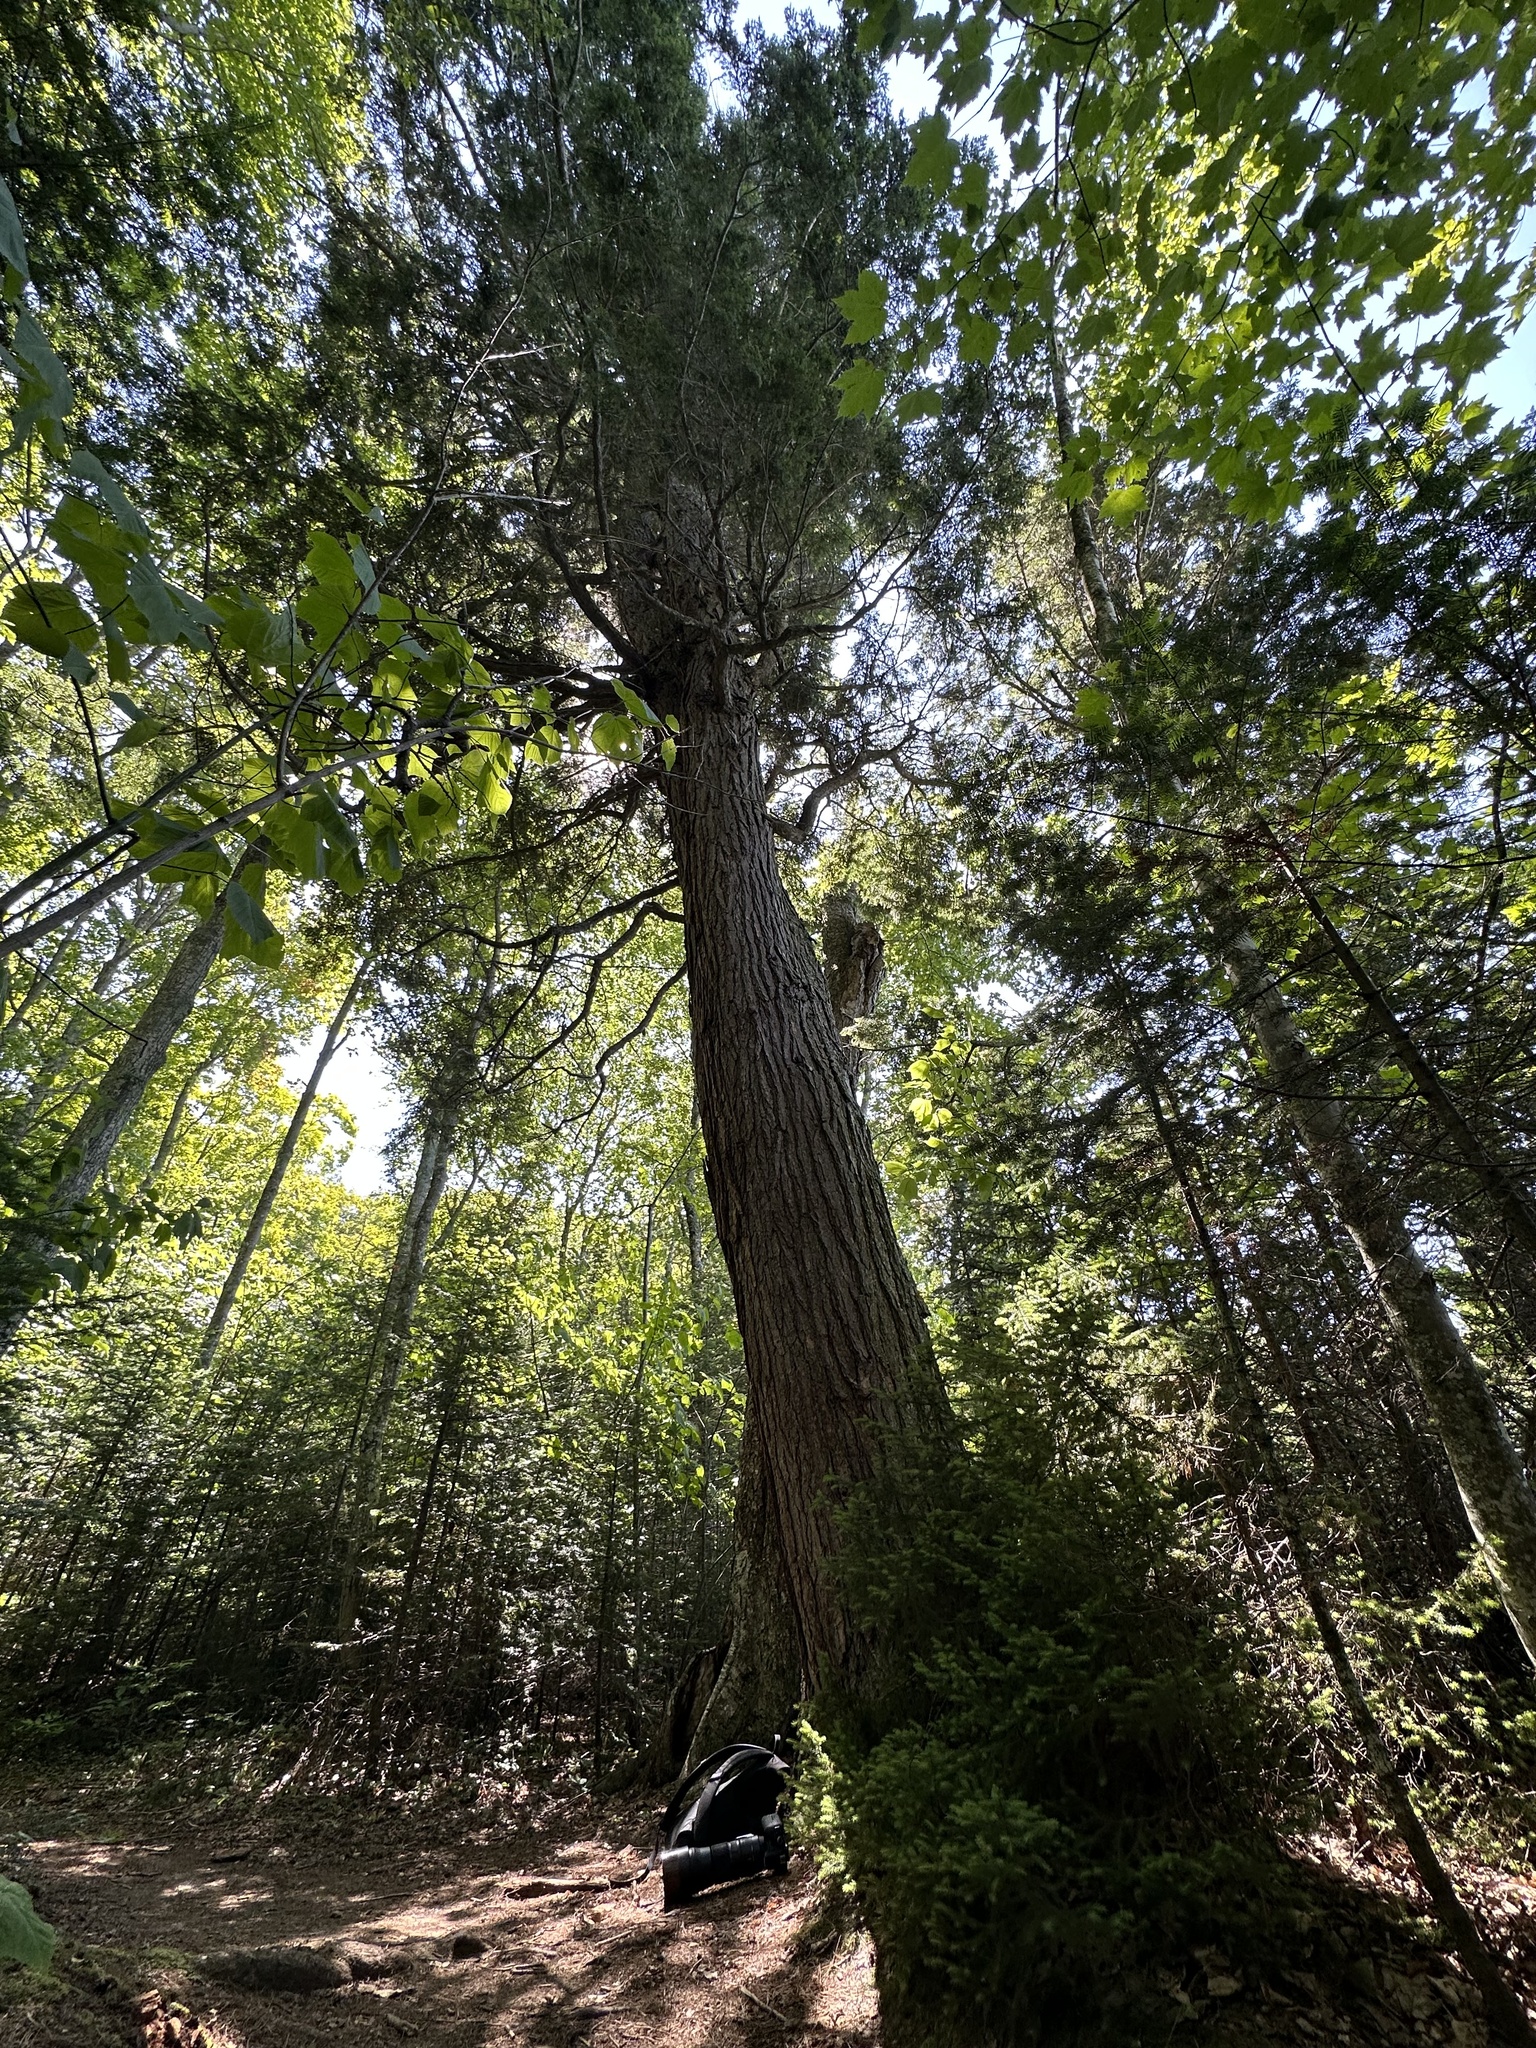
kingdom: Plantae
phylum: Tracheophyta
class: Pinopsida
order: Pinales
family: Pinaceae
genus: Tsuga
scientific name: Tsuga canadensis
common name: Eastern hemlock
